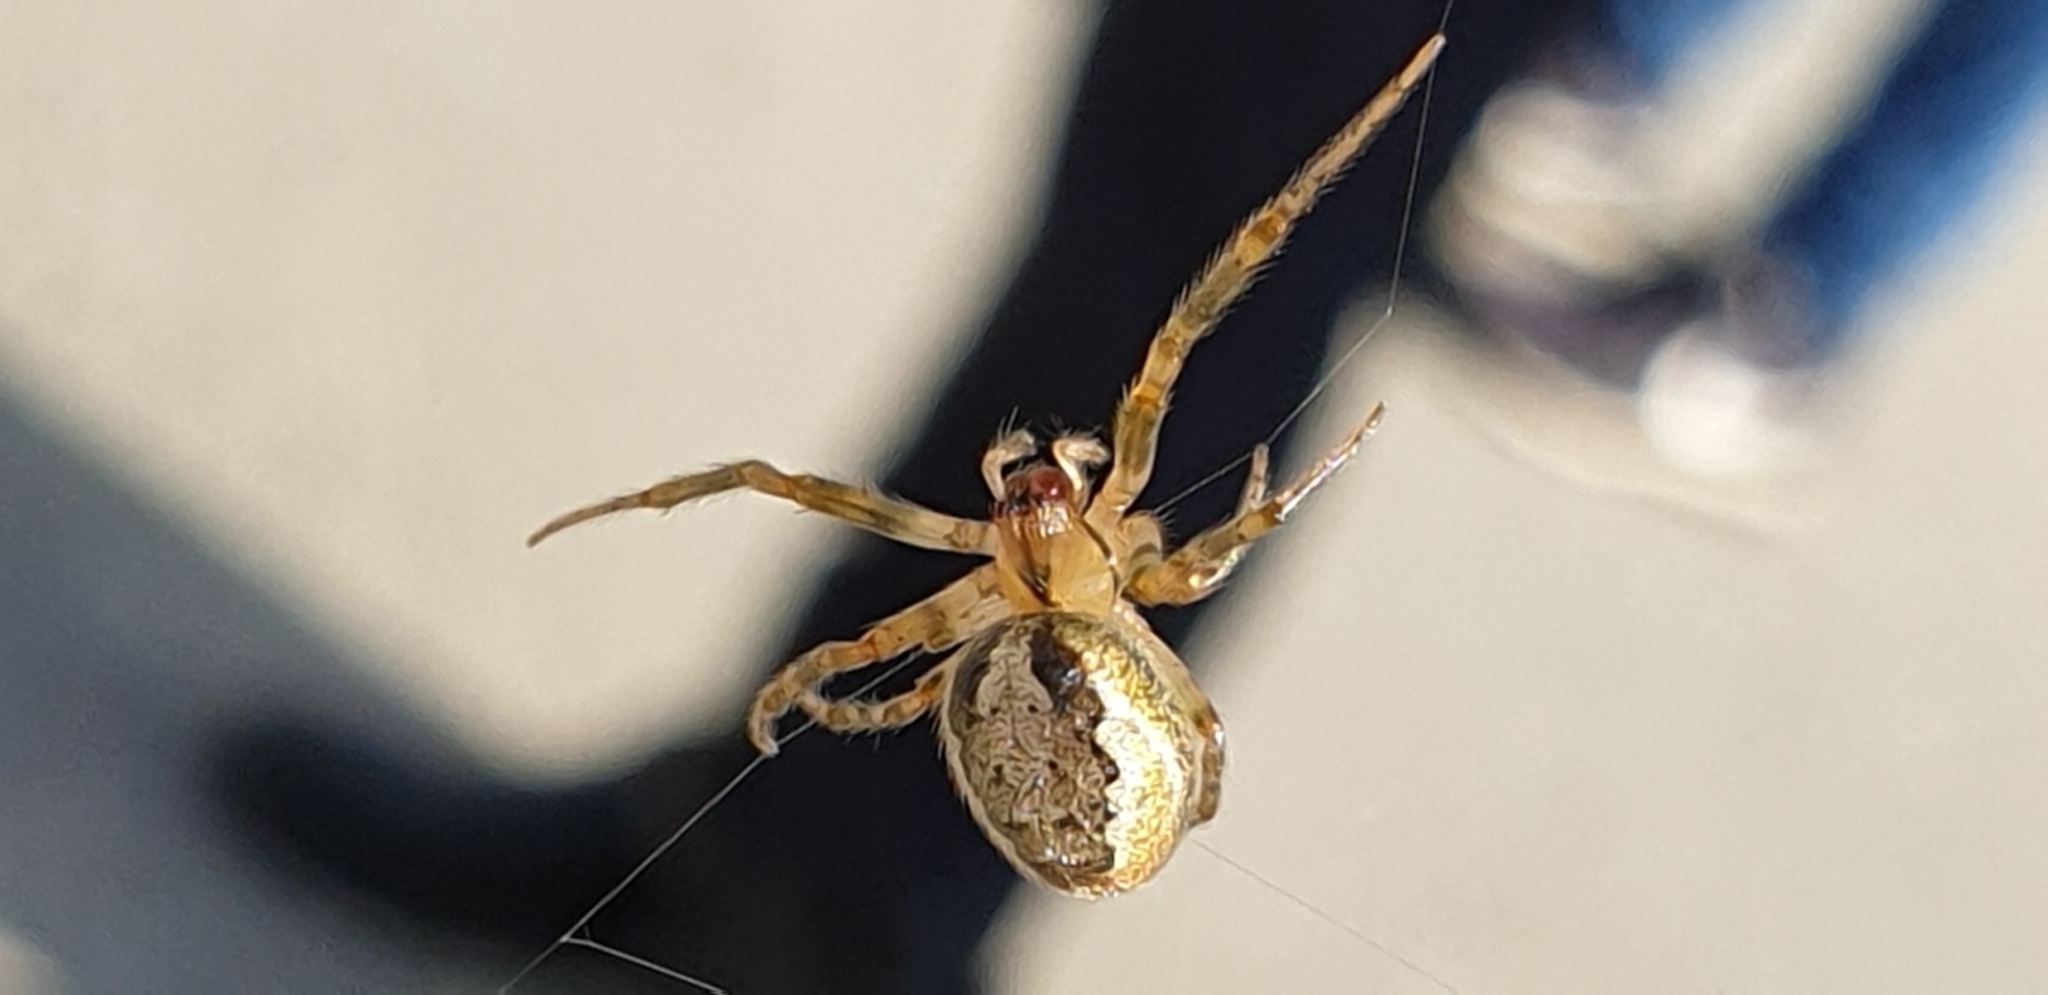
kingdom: Animalia
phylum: Arthropoda
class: Arachnida
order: Araneae
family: Araneidae
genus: Zygiella
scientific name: Zygiella x-notata
